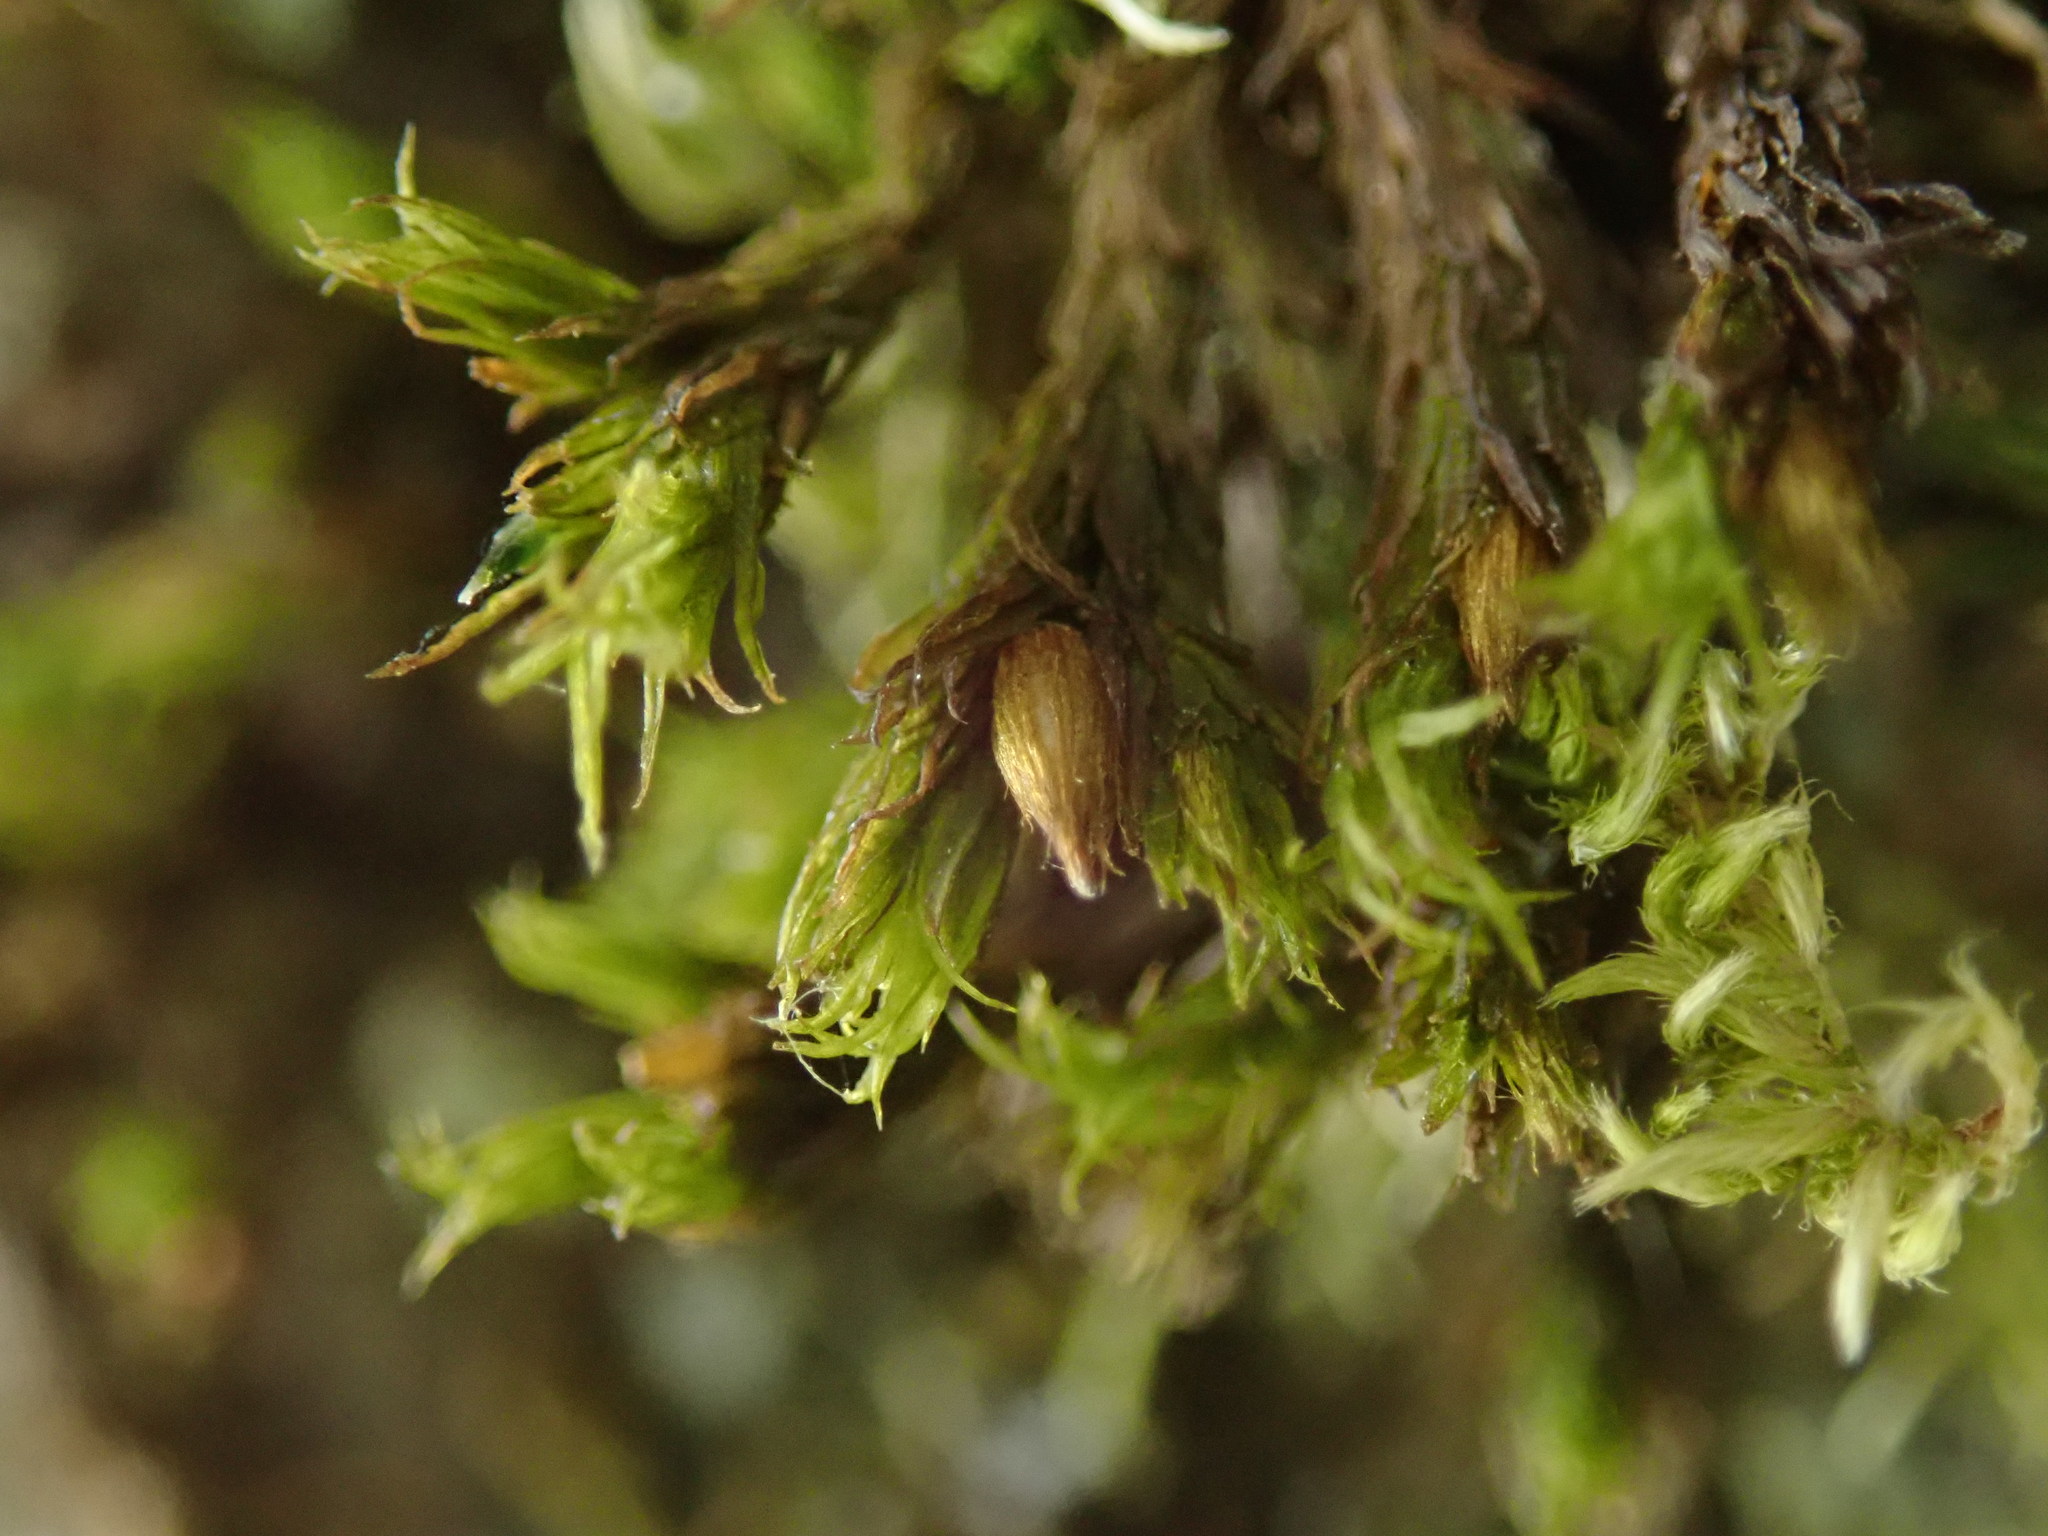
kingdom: Plantae
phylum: Bryophyta
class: Bryopsida
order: Orthotrichales
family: Orthotrichaceae
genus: Pulvigera
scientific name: Pulvigera papillosa
